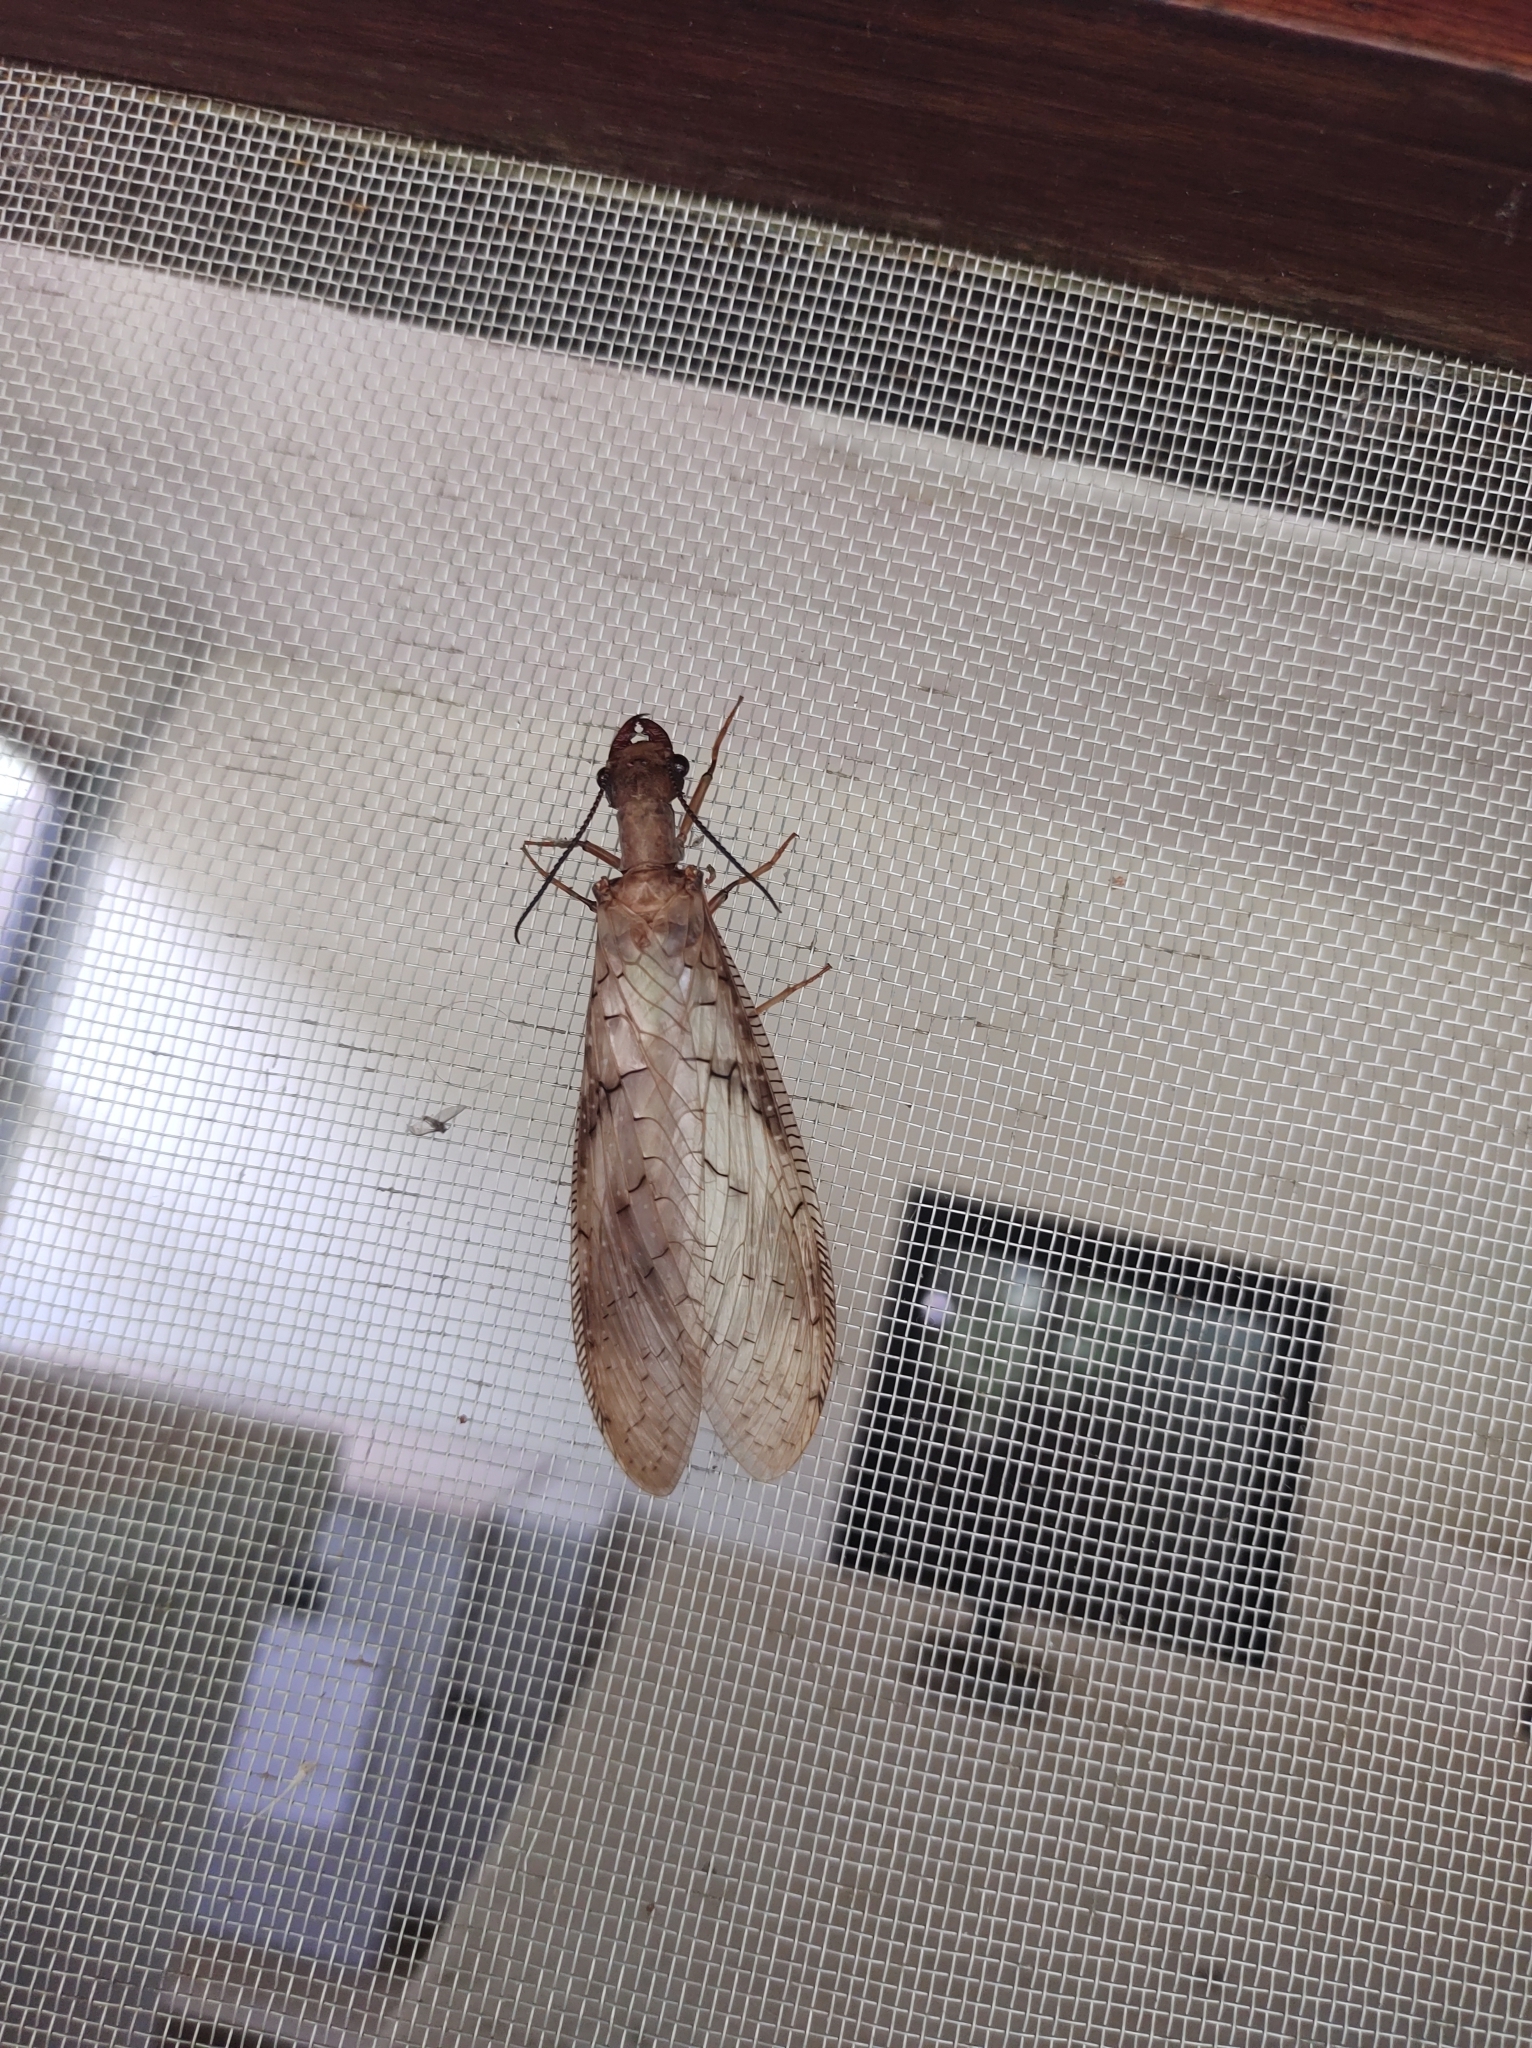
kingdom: Animalia
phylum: Arthropoda
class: Insecta
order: Megaloptera
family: Corydalidae
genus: Corydalus
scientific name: Corydalus flavicornis
